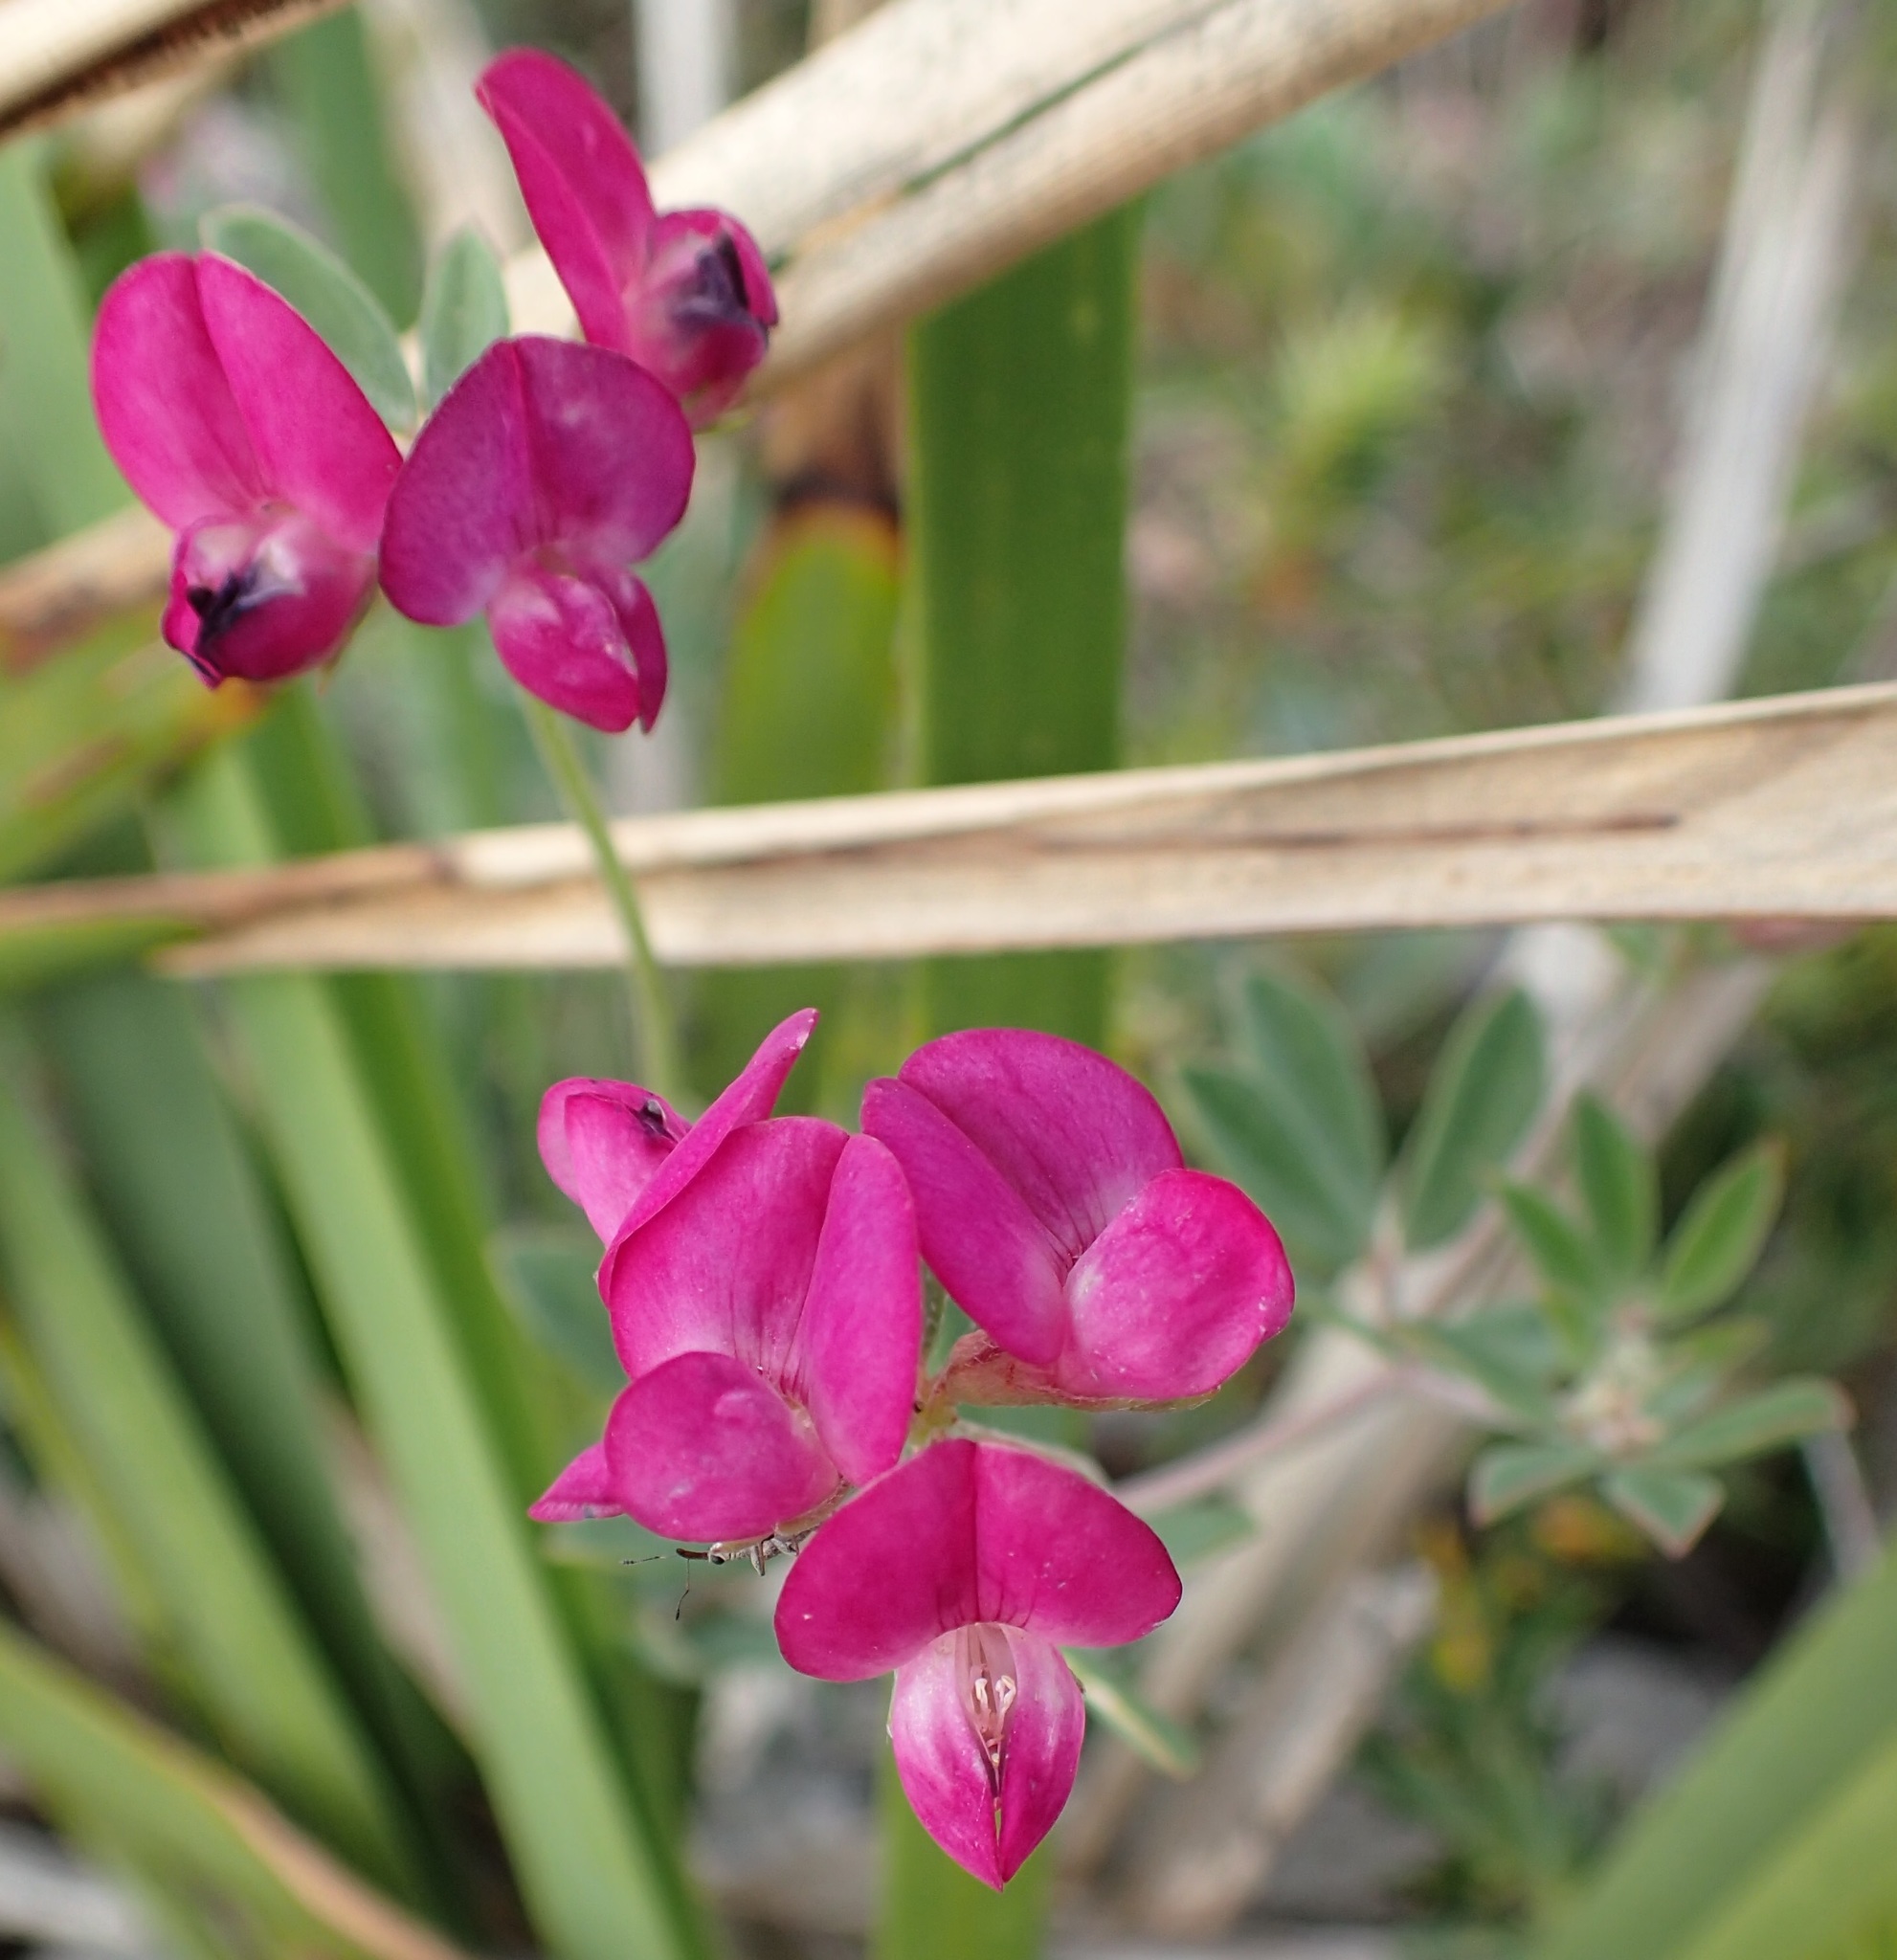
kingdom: Plantae
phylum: Tracheophyta
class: Magnoliopsida
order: Fabales
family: Fabaceae
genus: Lotus
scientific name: Lotus australis
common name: Australian trefoil
